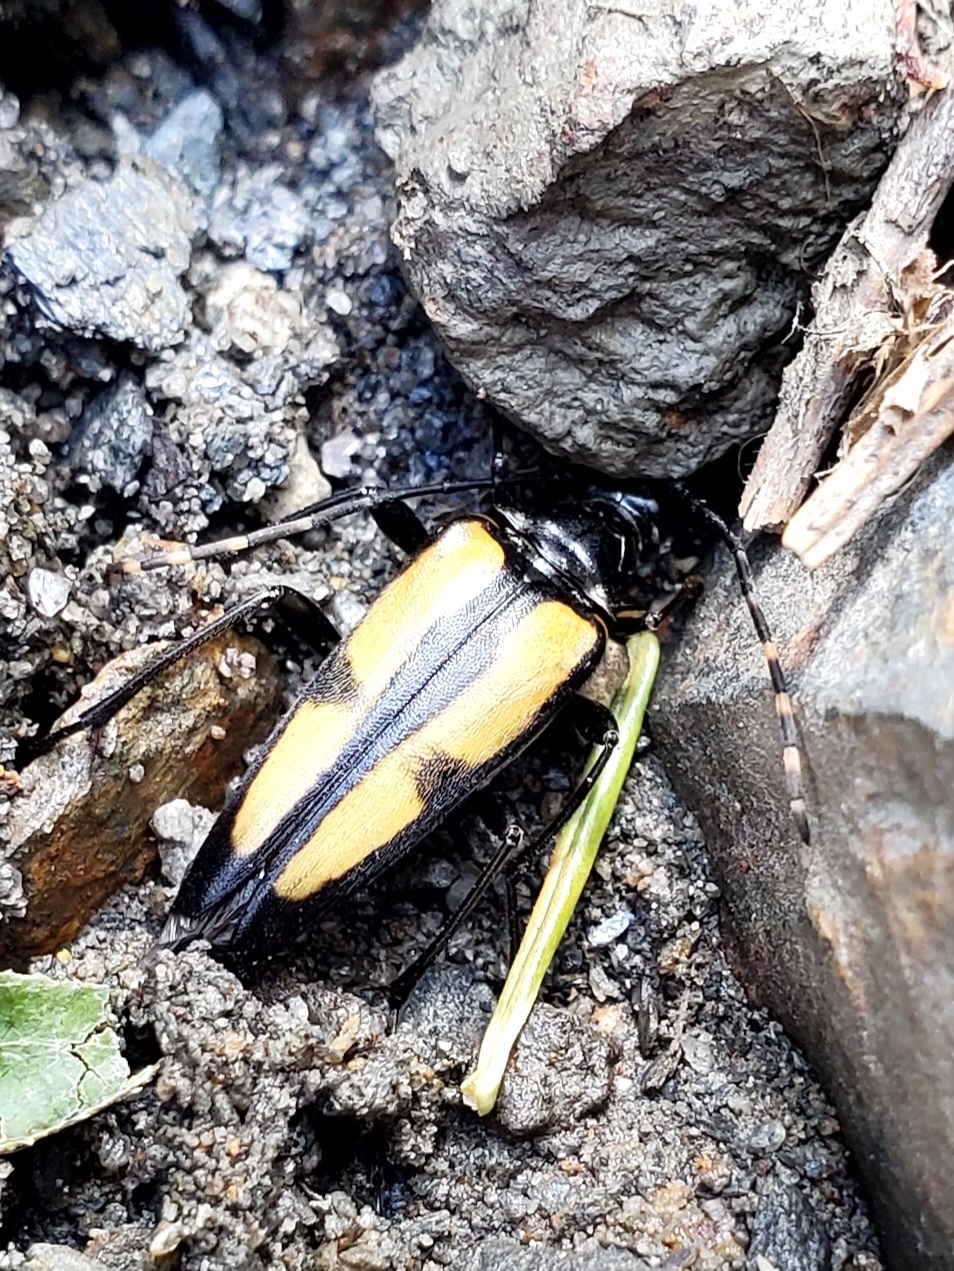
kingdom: Animalia
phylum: Arthropoda
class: Insecta
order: Coleoptera
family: Cerambycidae
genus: Etorofus
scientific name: Etorofus
